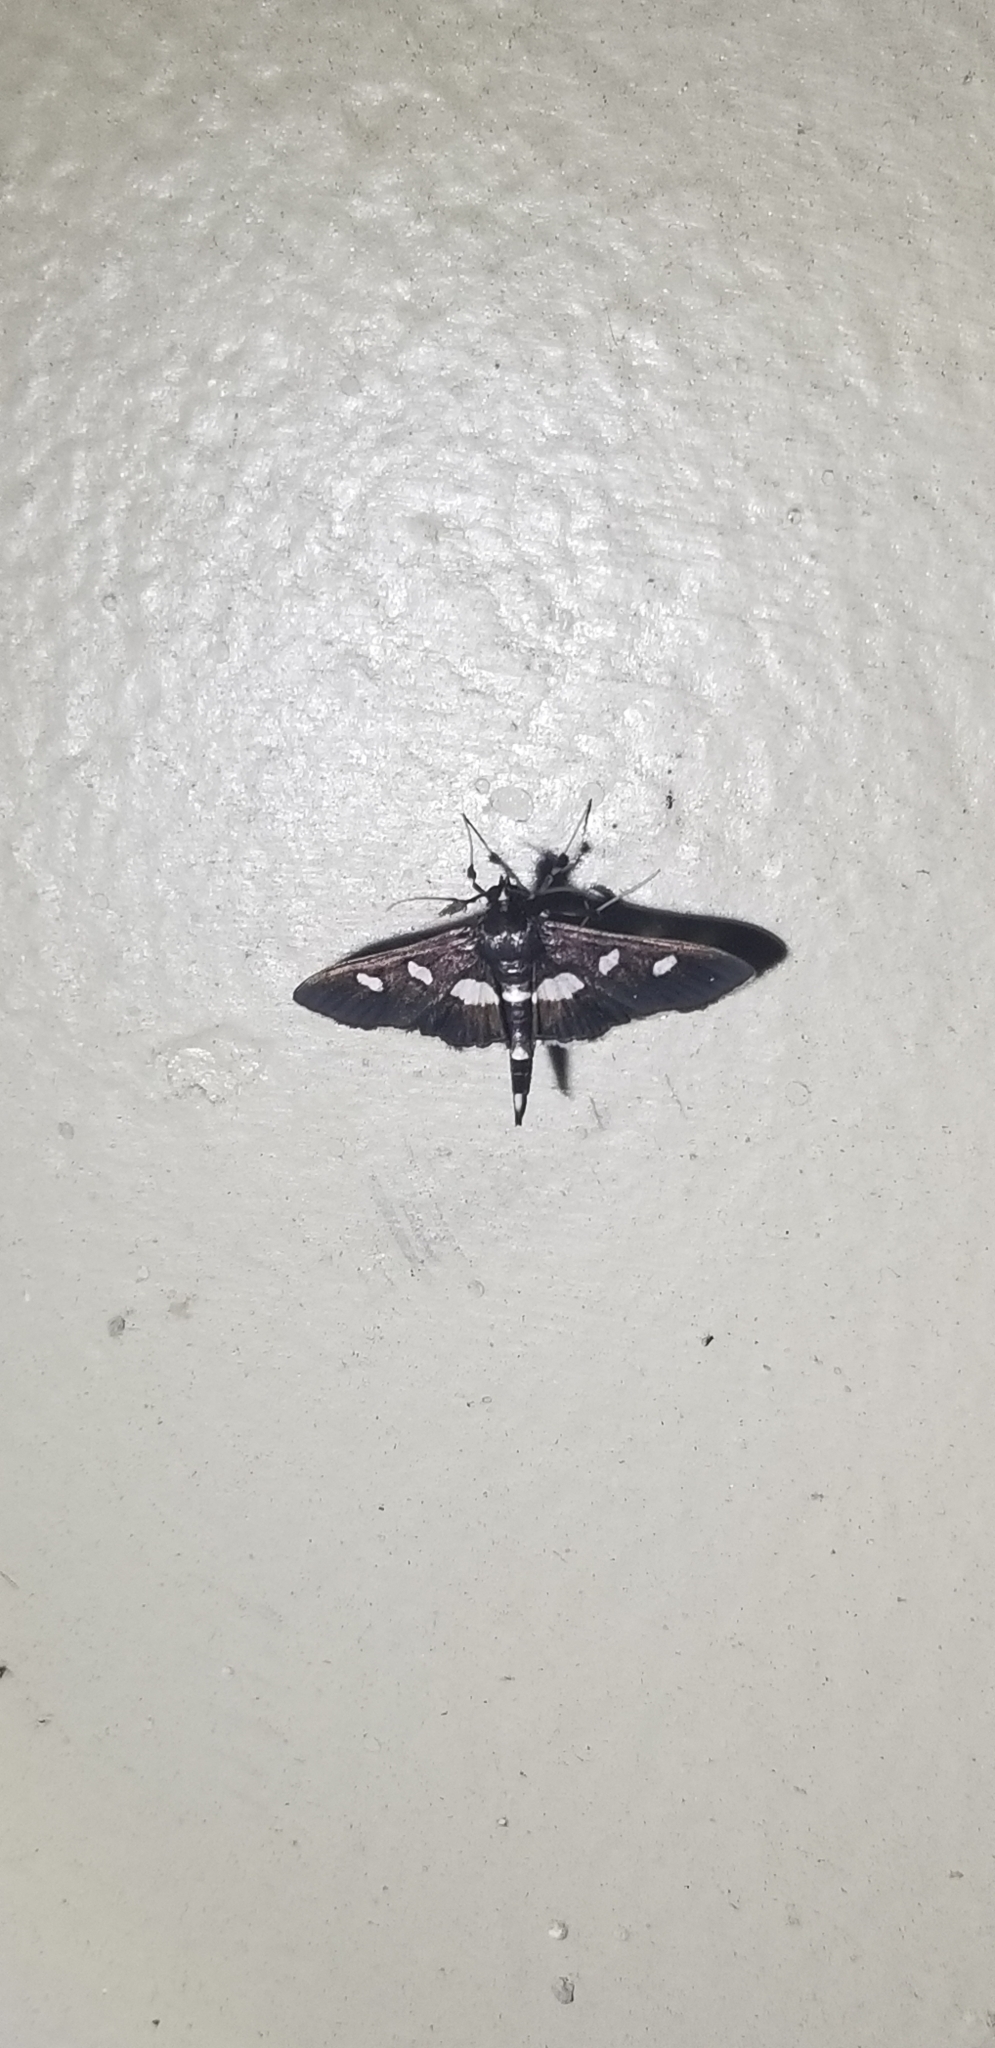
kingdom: Animalia
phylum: Arthropoda
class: Insecta
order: Lepidoptera
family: Crambidae
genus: Desmia
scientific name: Desmia
